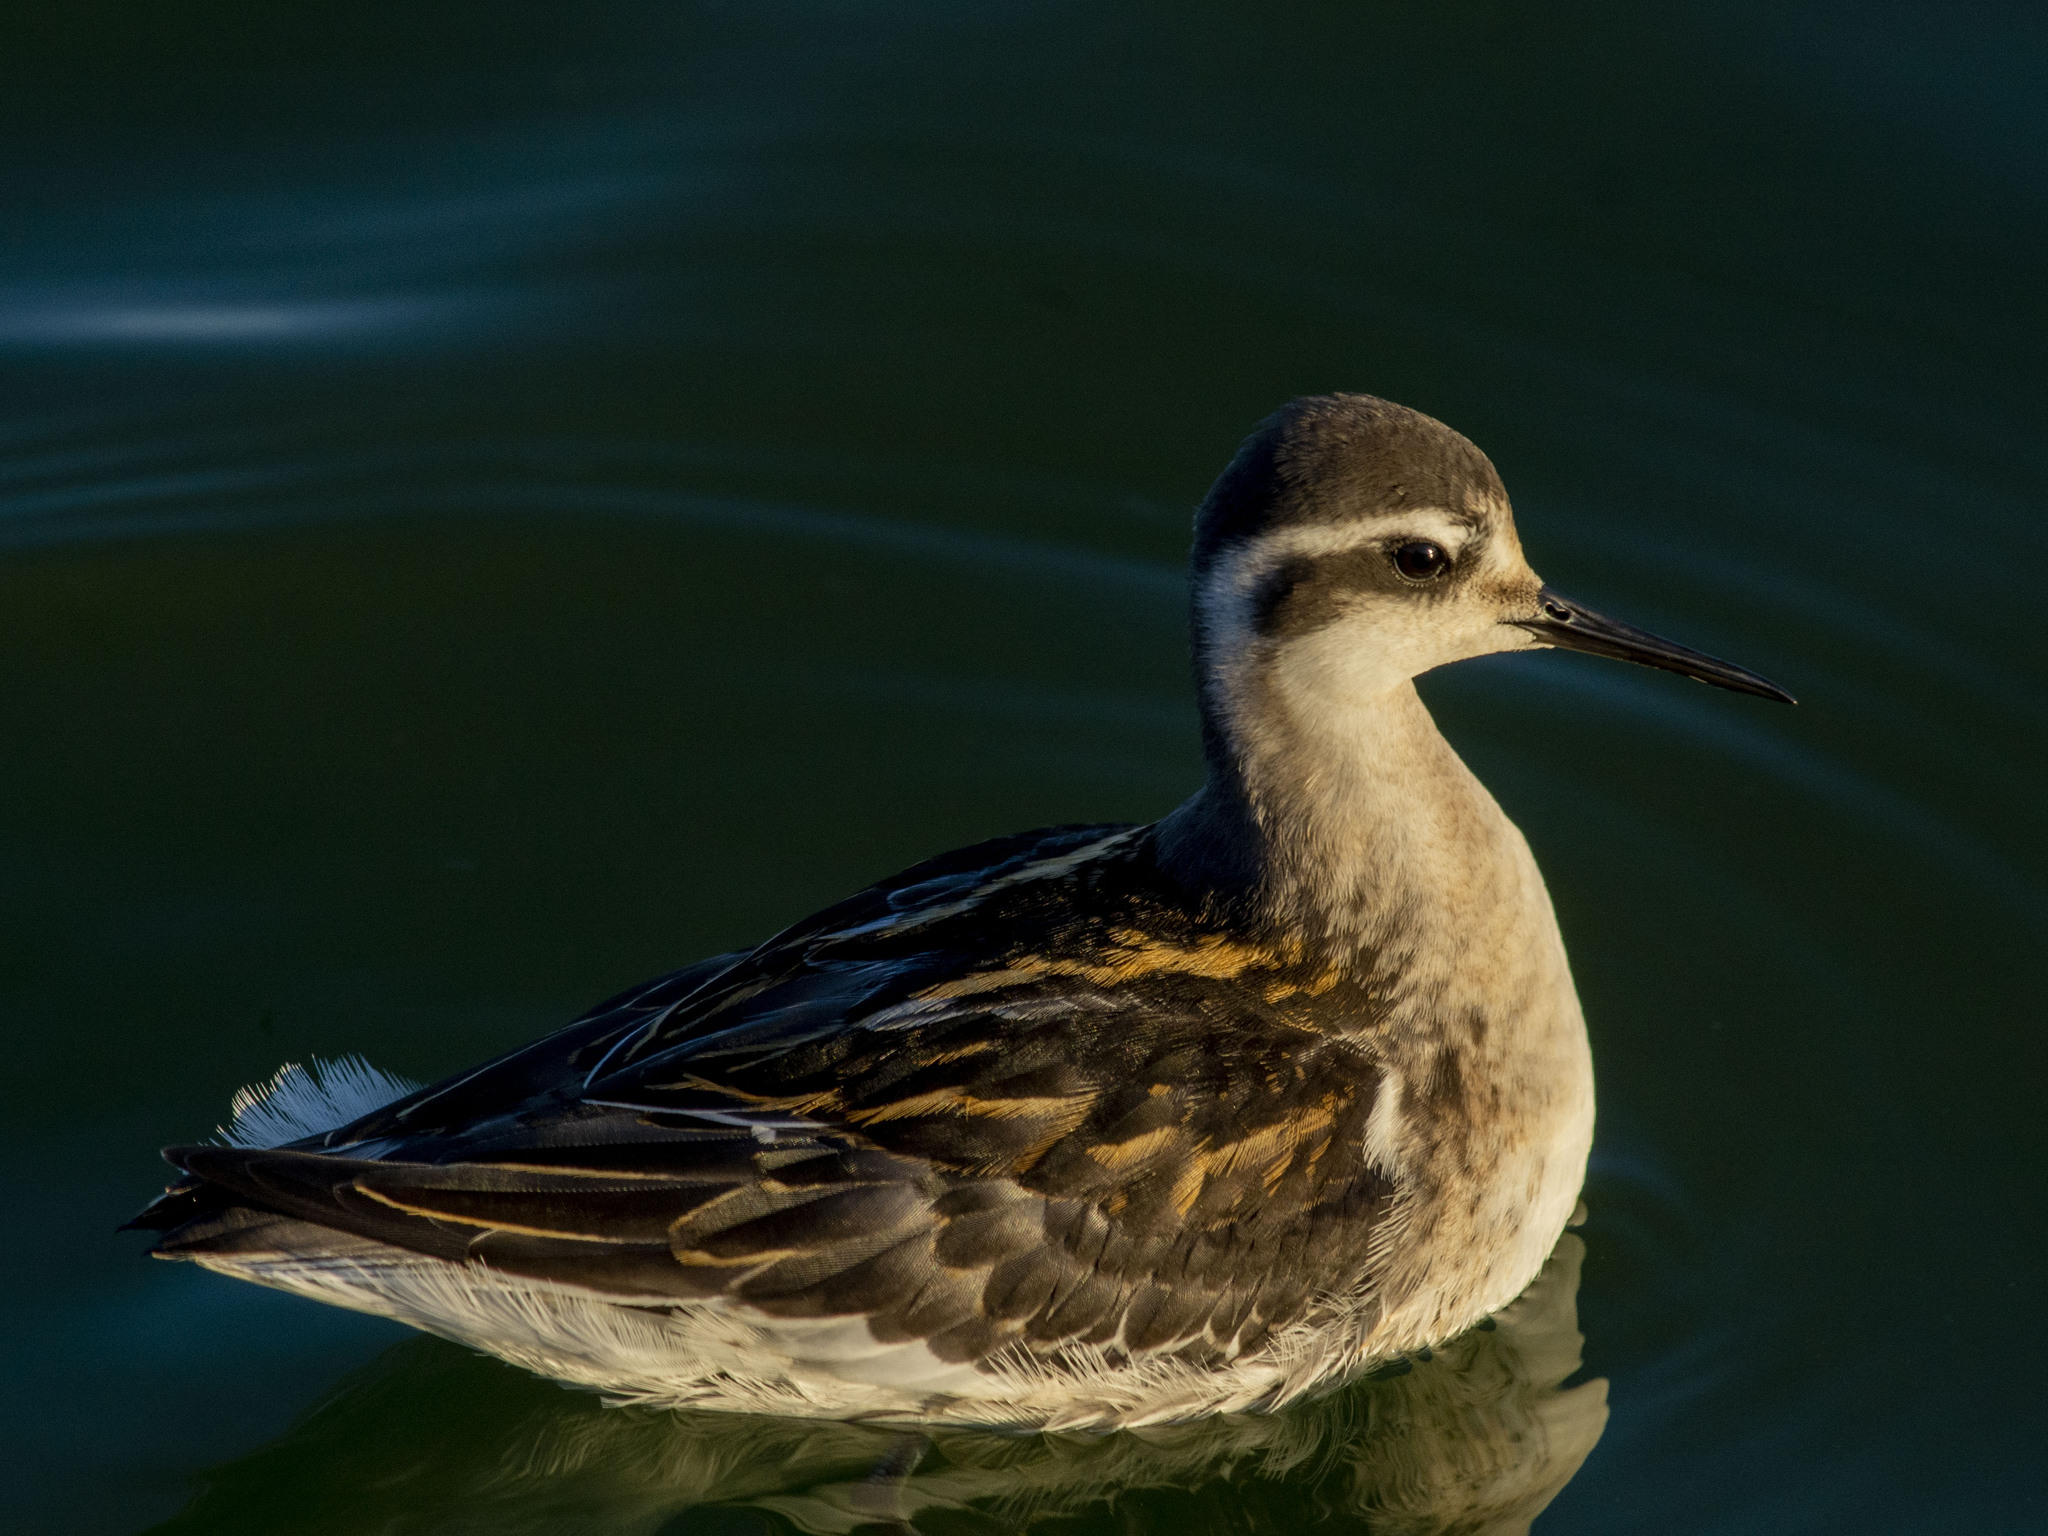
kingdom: Animalia
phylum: Chordata
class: Aves
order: Charadriiformes
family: Scolopacidae
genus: Phalaropus
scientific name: Phalaropus lobatus
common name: Red-necked phalarope
